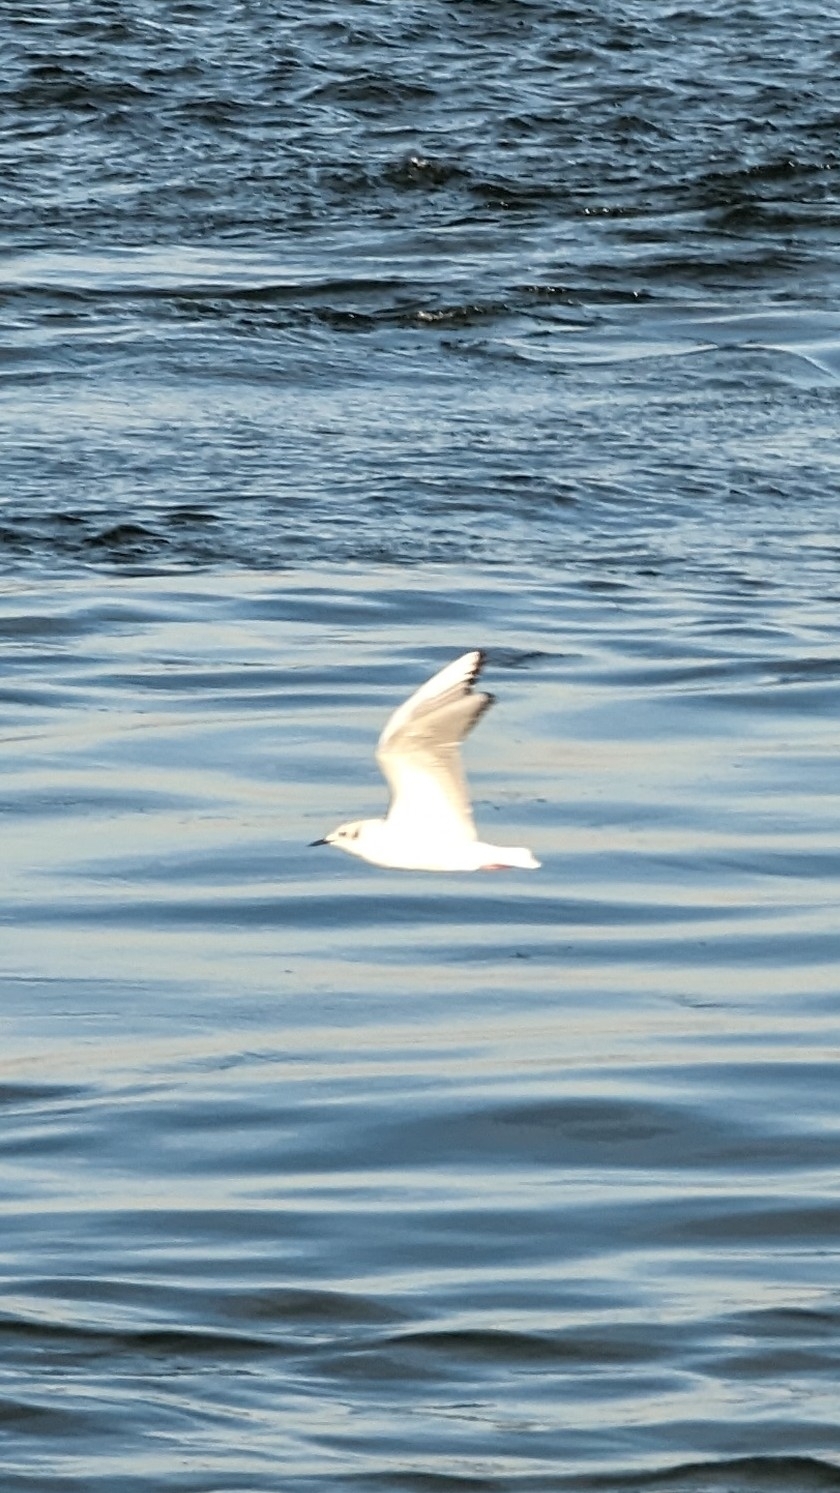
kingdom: Animalia
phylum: Chordata
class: Aves
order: Charadriiformes
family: Laridae
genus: Chroicocephalus
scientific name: Chroicocephalus philadelphia
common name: Bonaparte's gull
